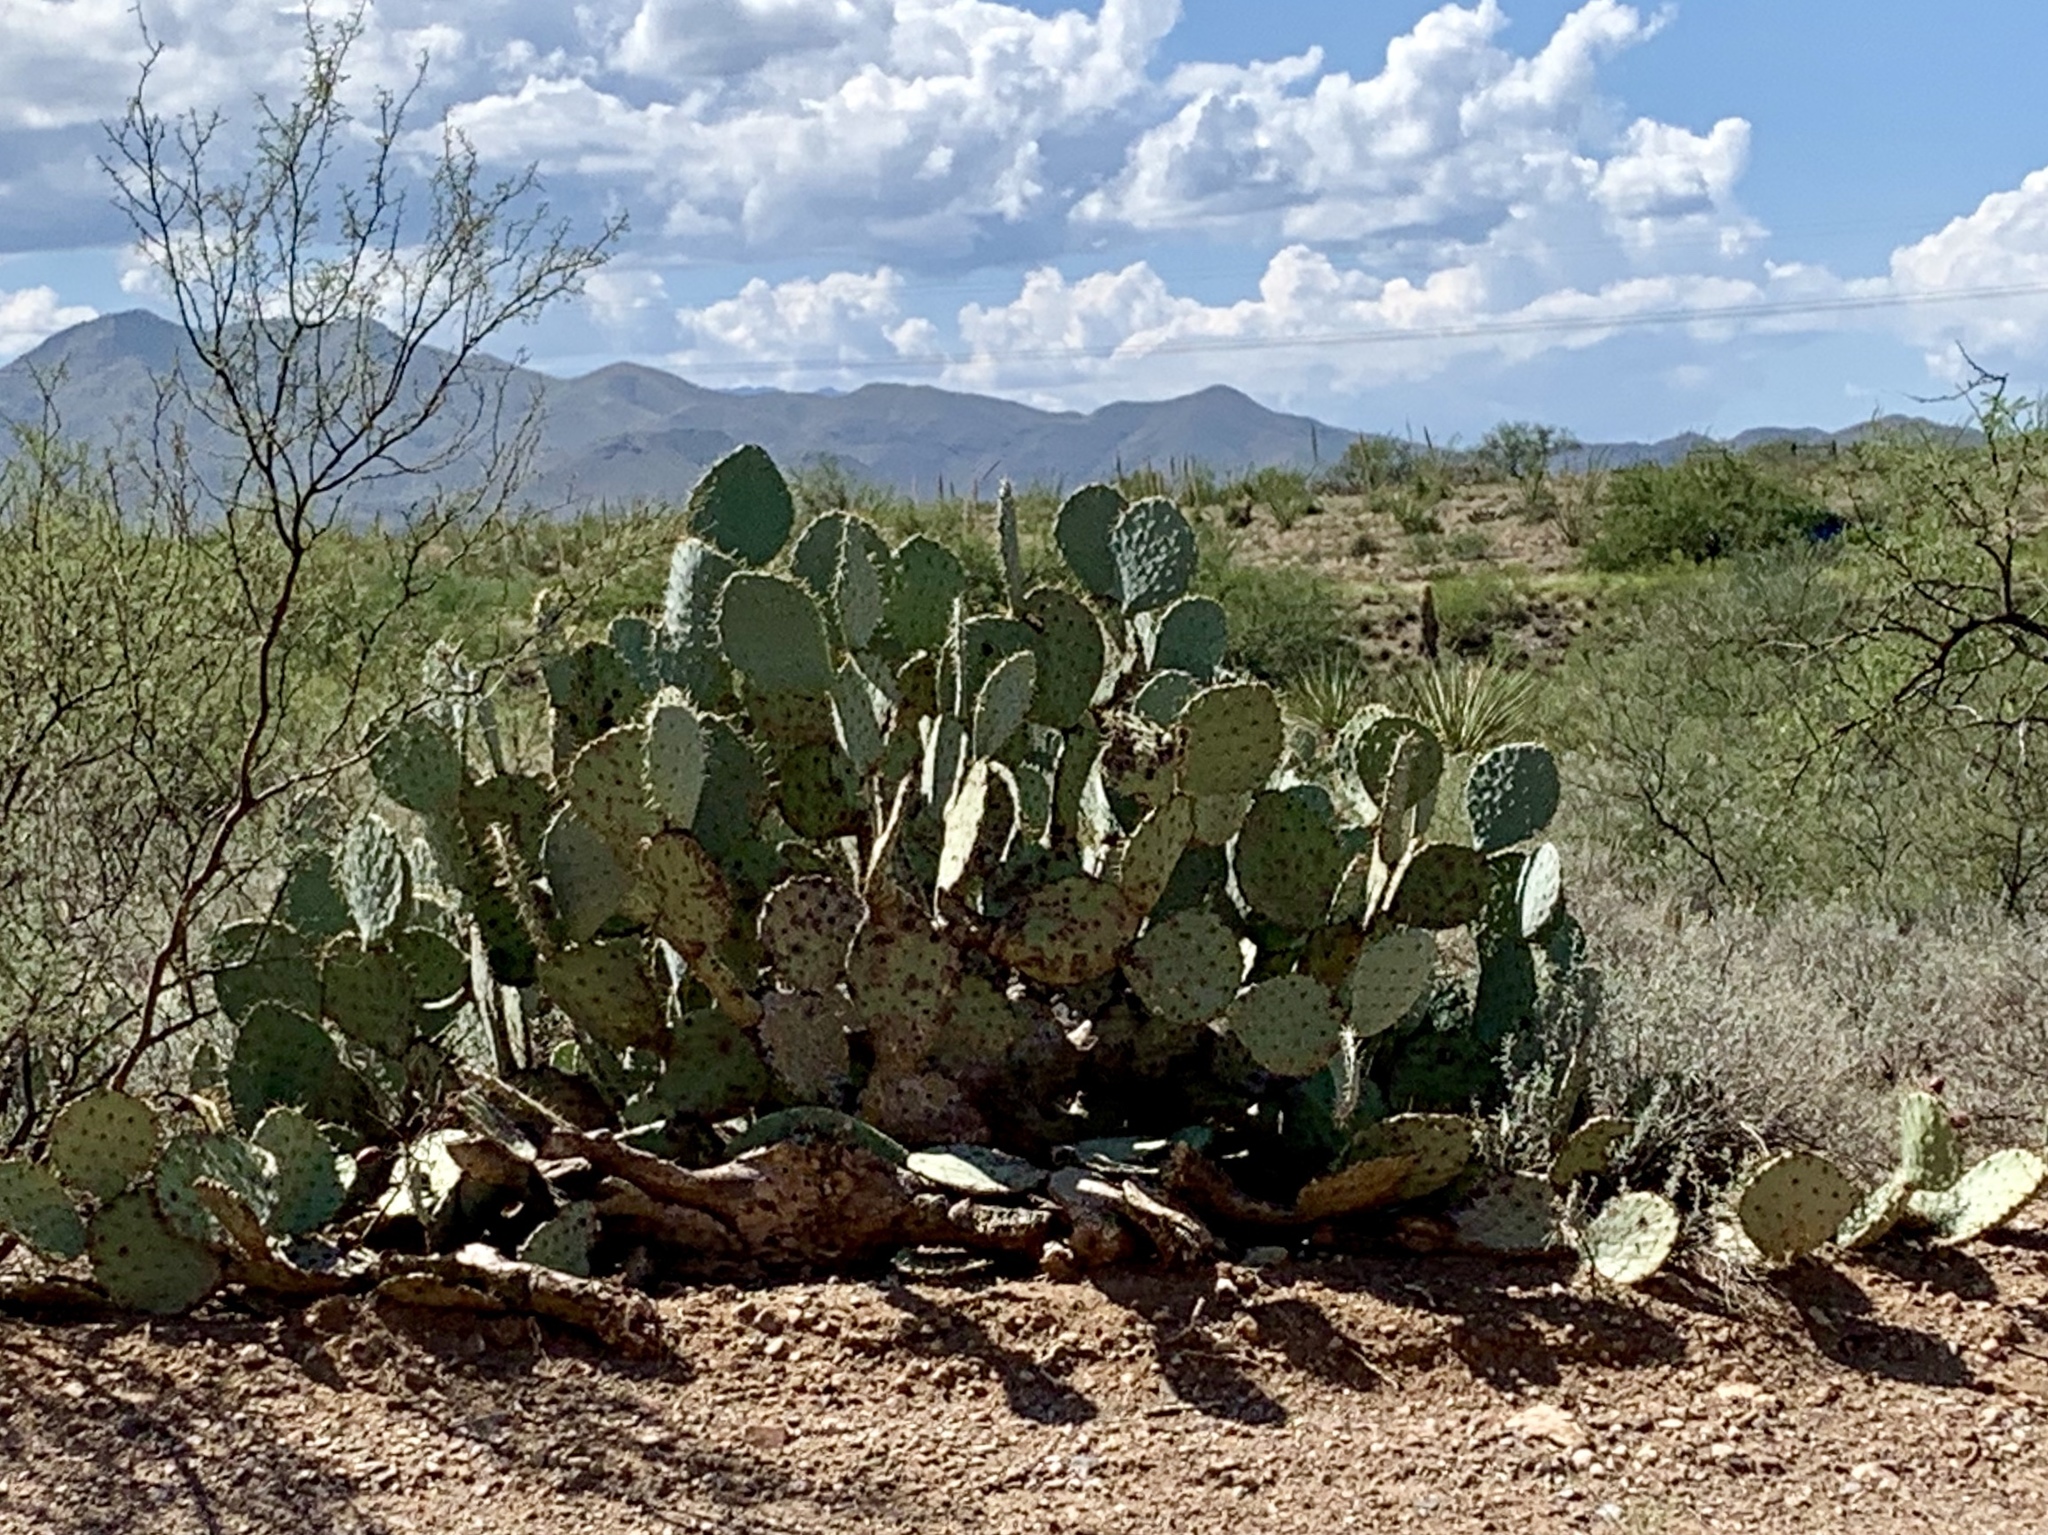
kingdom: Plantae
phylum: Tracheophyta
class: Magnoliopsida
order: Caryophyllales
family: Cactaceae
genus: Opuntia
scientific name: Opuntia engelmannii
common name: Cactus-apple
